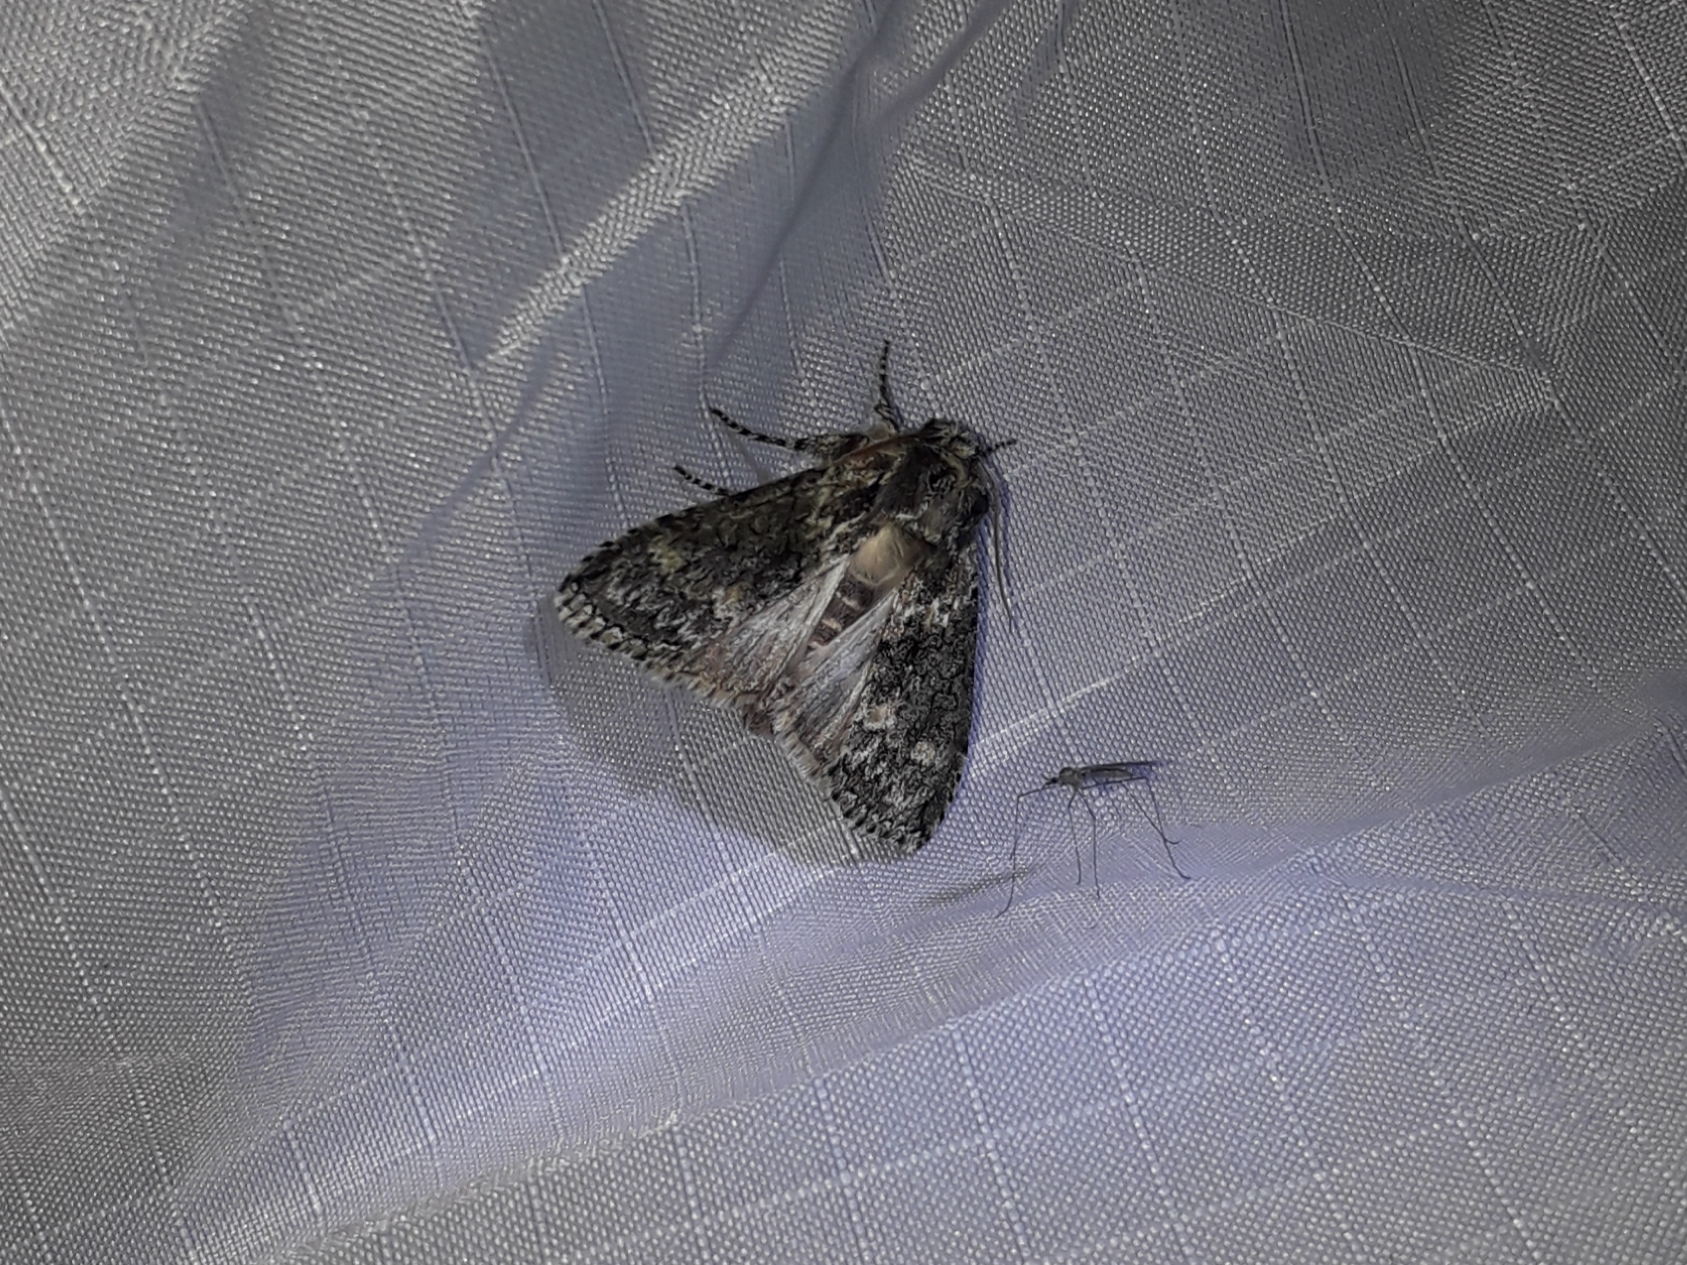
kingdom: Animalia
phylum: Arthropoda
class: Insecta
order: Lepidoptera
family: Drepanidae
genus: Polyploca
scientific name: Polyploca ridens
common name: Frosted green
